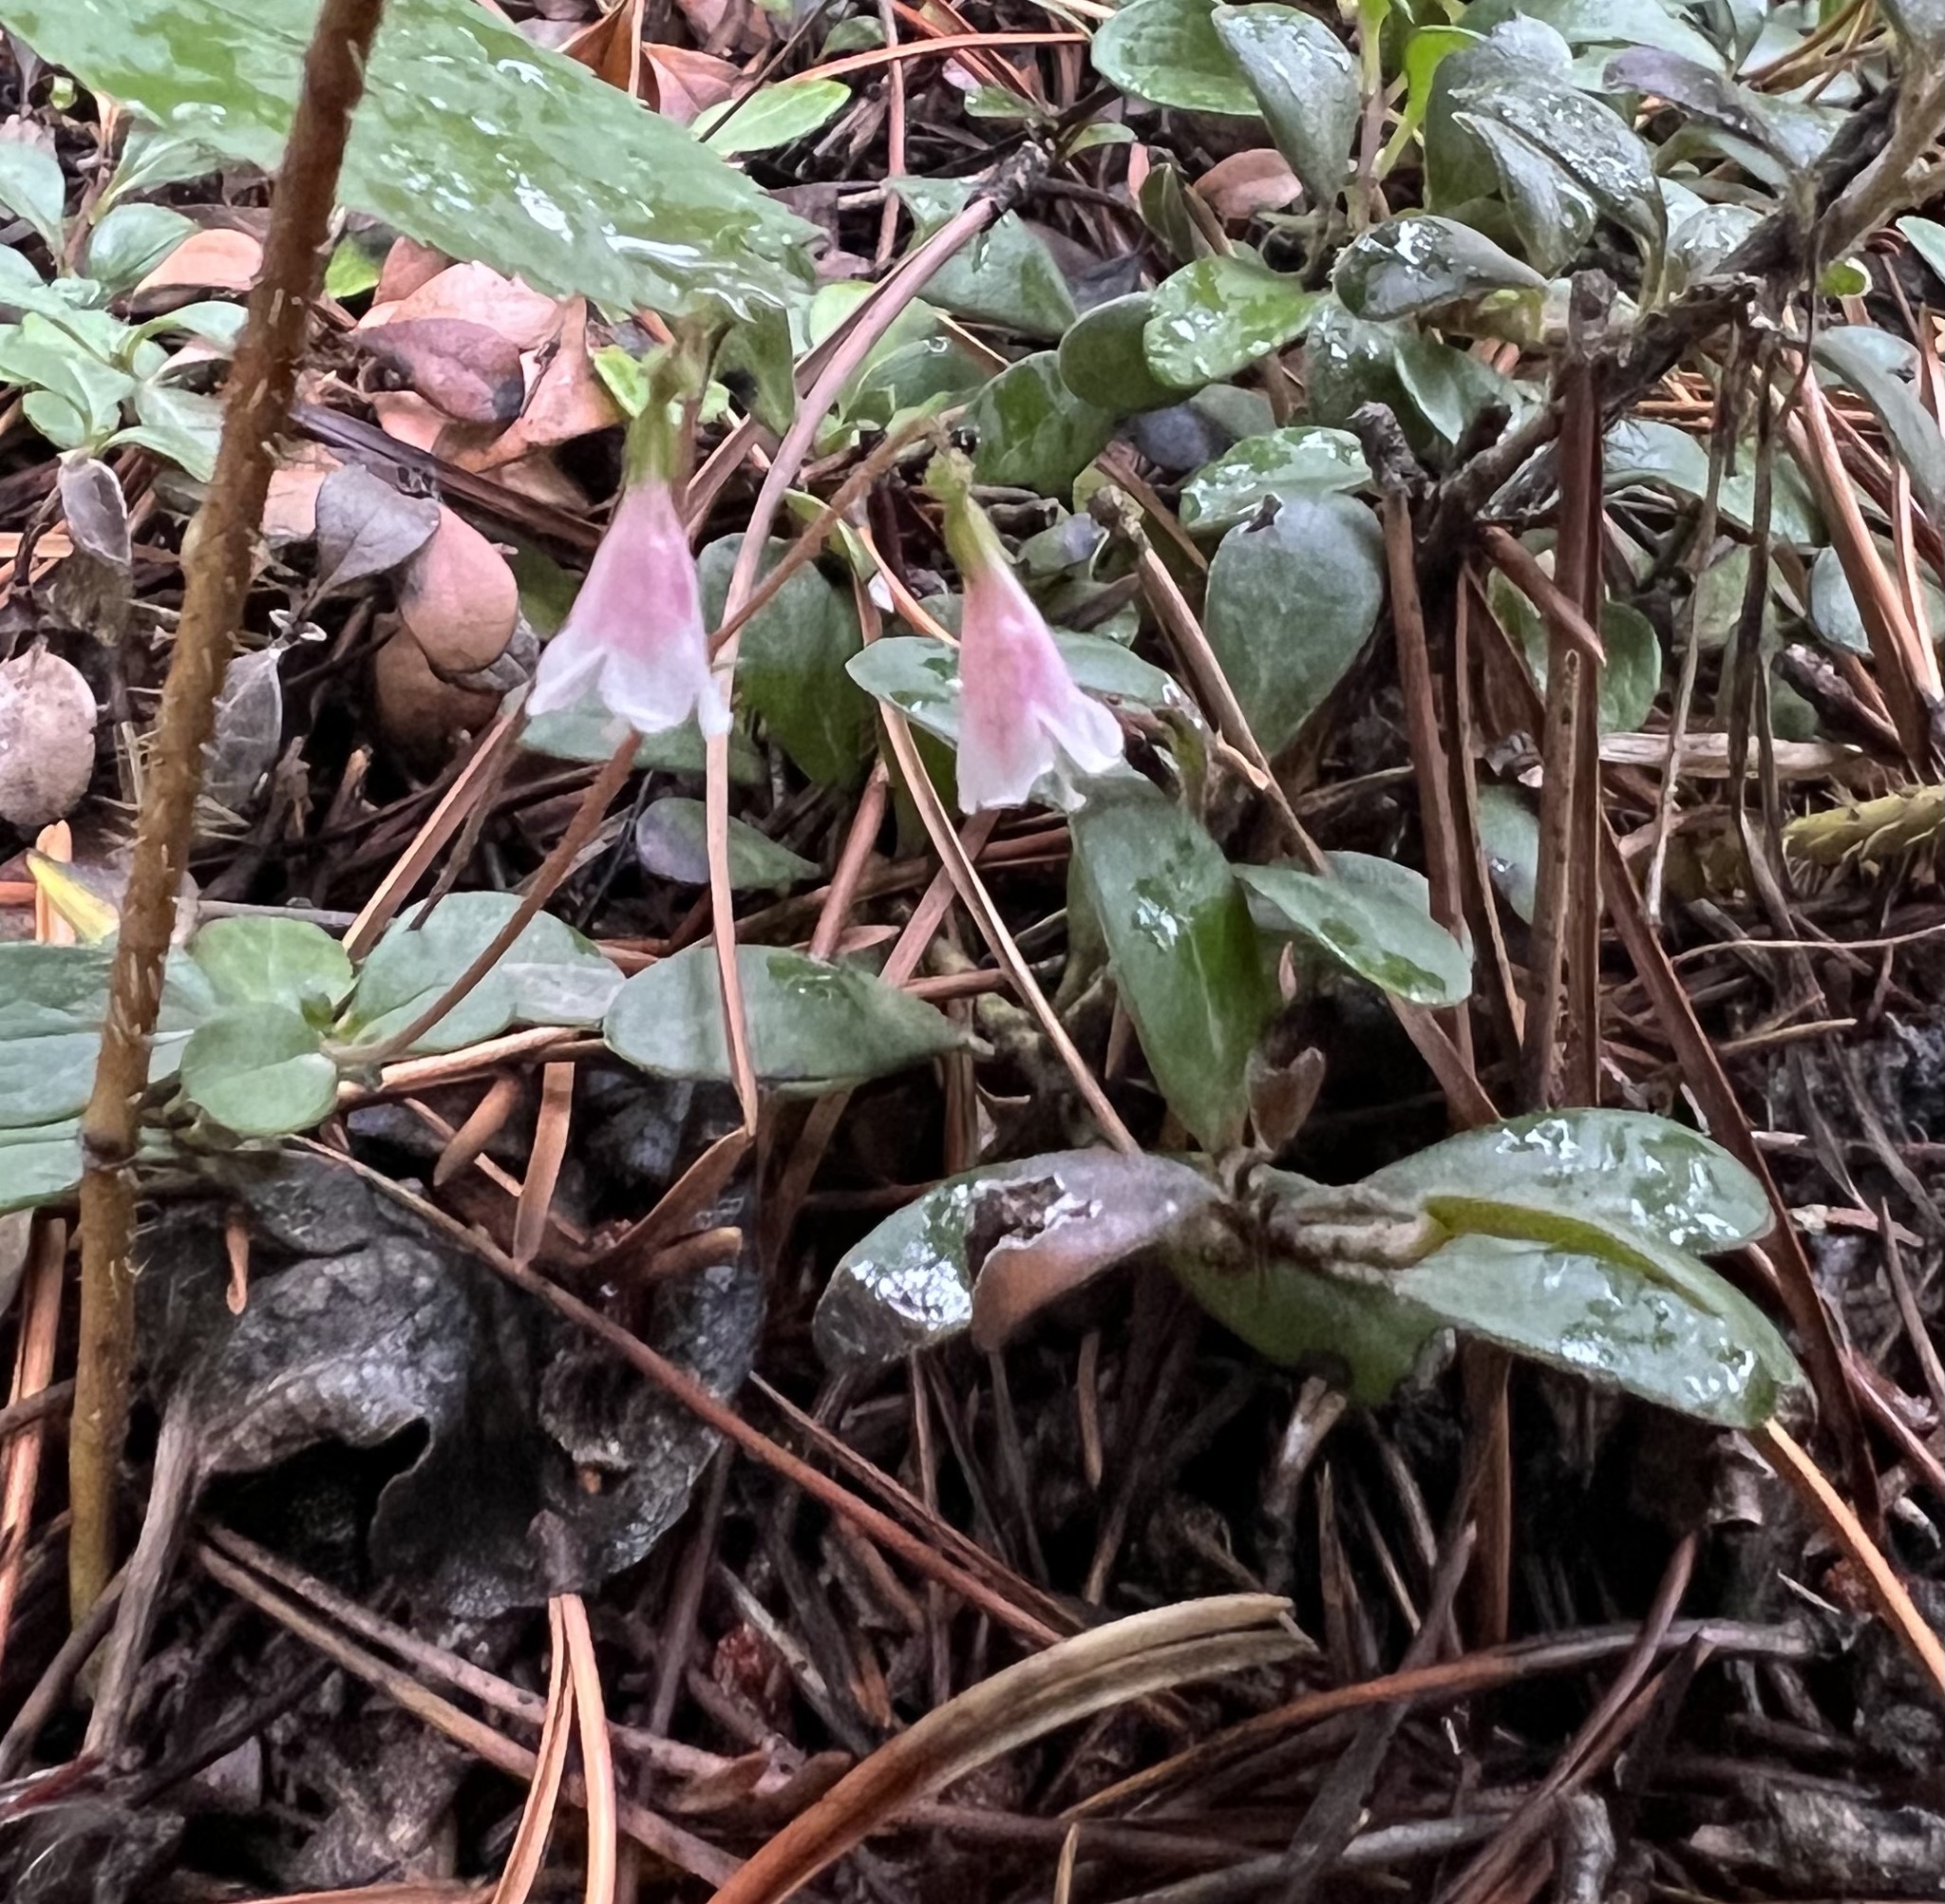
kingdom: Plantae
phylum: Tracheophyta
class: Magnoliopsida
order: Dipsacales
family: Caprifoliaceae
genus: Linnaea
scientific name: Linnaea borealis
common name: Twinflower
